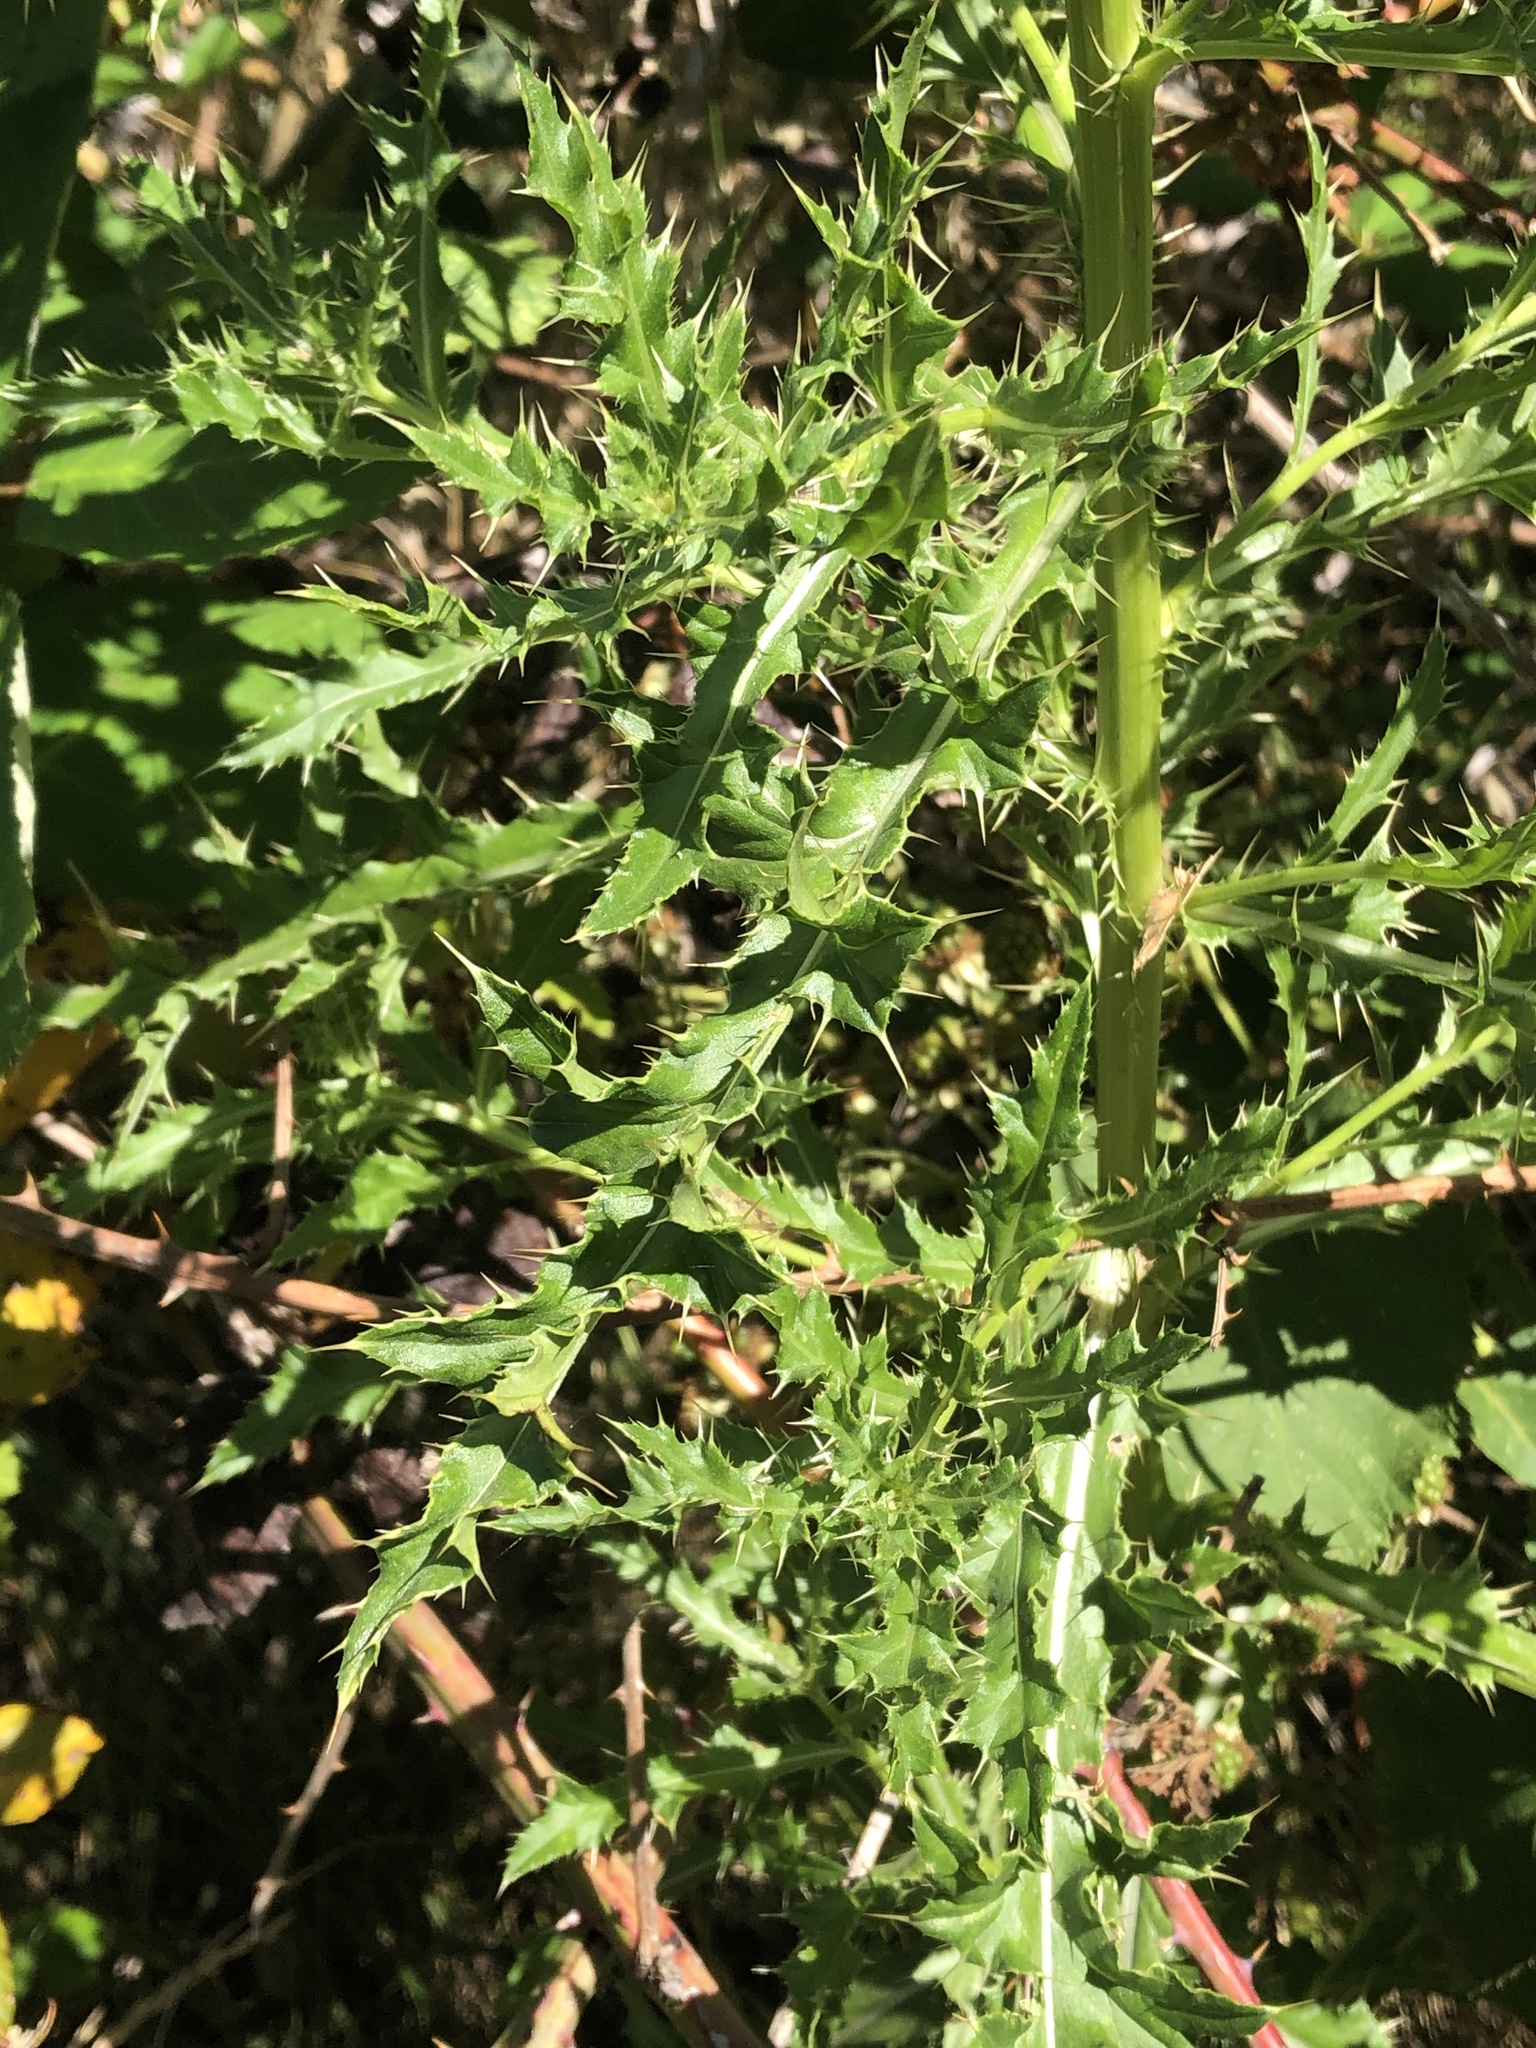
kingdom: Plantae
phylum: Tracheophyta
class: Magnoliopsida
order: Asterales
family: Asteraceae
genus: Cirsium
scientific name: Cirsium arvense
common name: Creeping thistle
